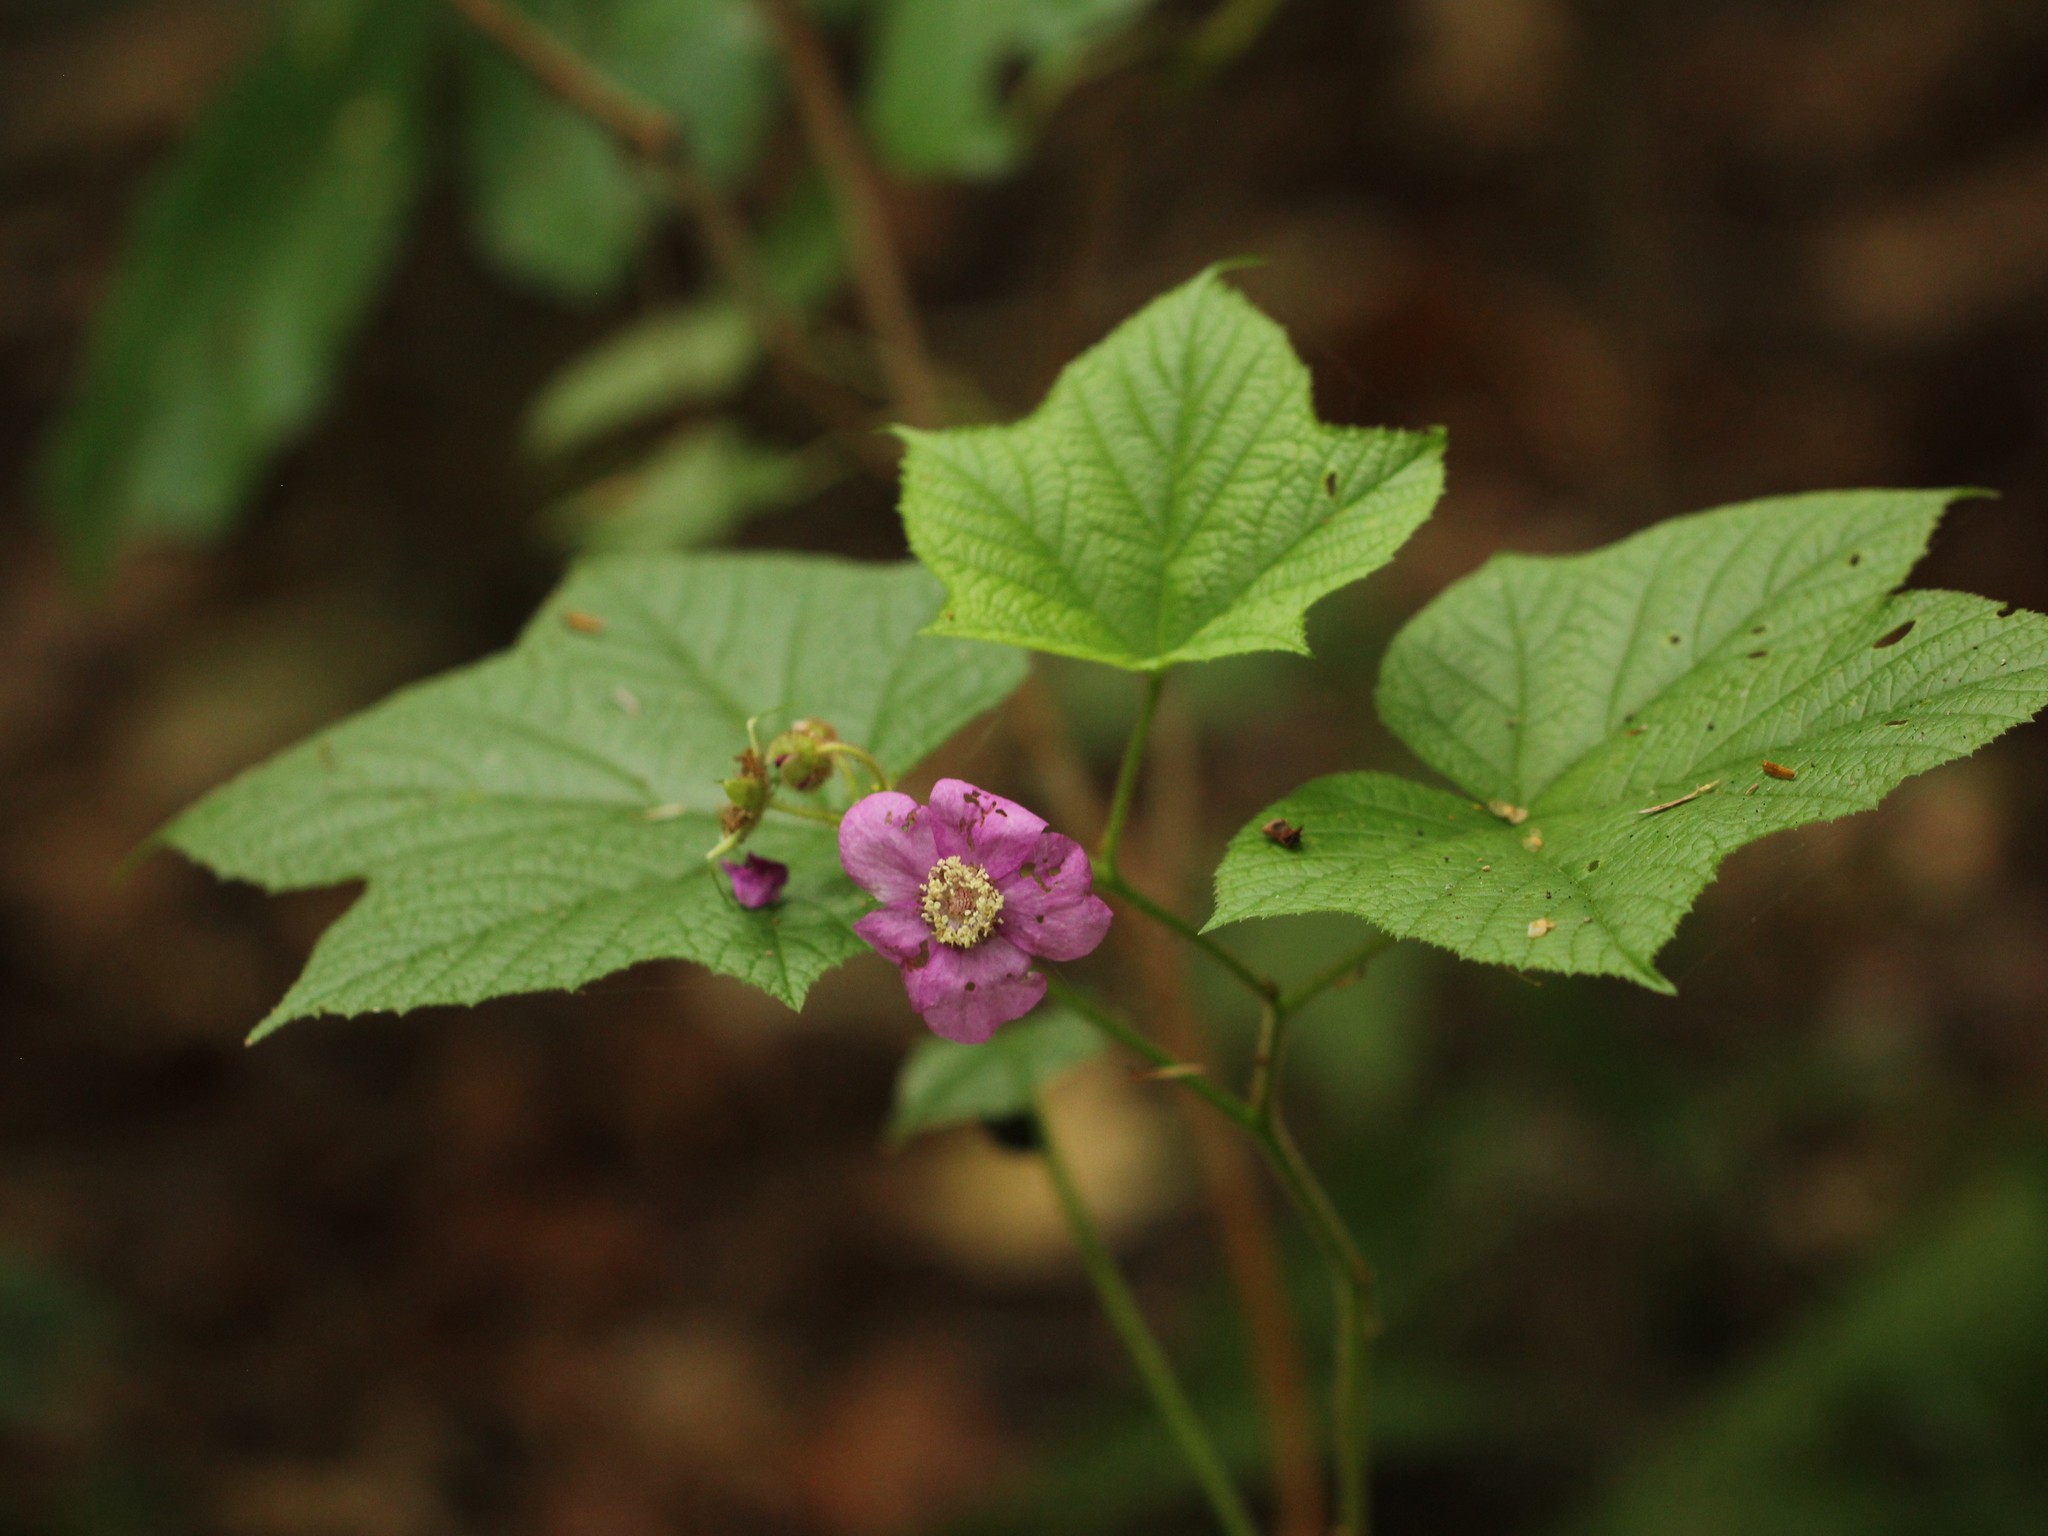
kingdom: Plantae
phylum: Tracheophyta
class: Magnoliopsida
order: Rosales
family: Rosaceae
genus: Rubus
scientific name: Rubus odoratus
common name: Purple-flowered raspberry
